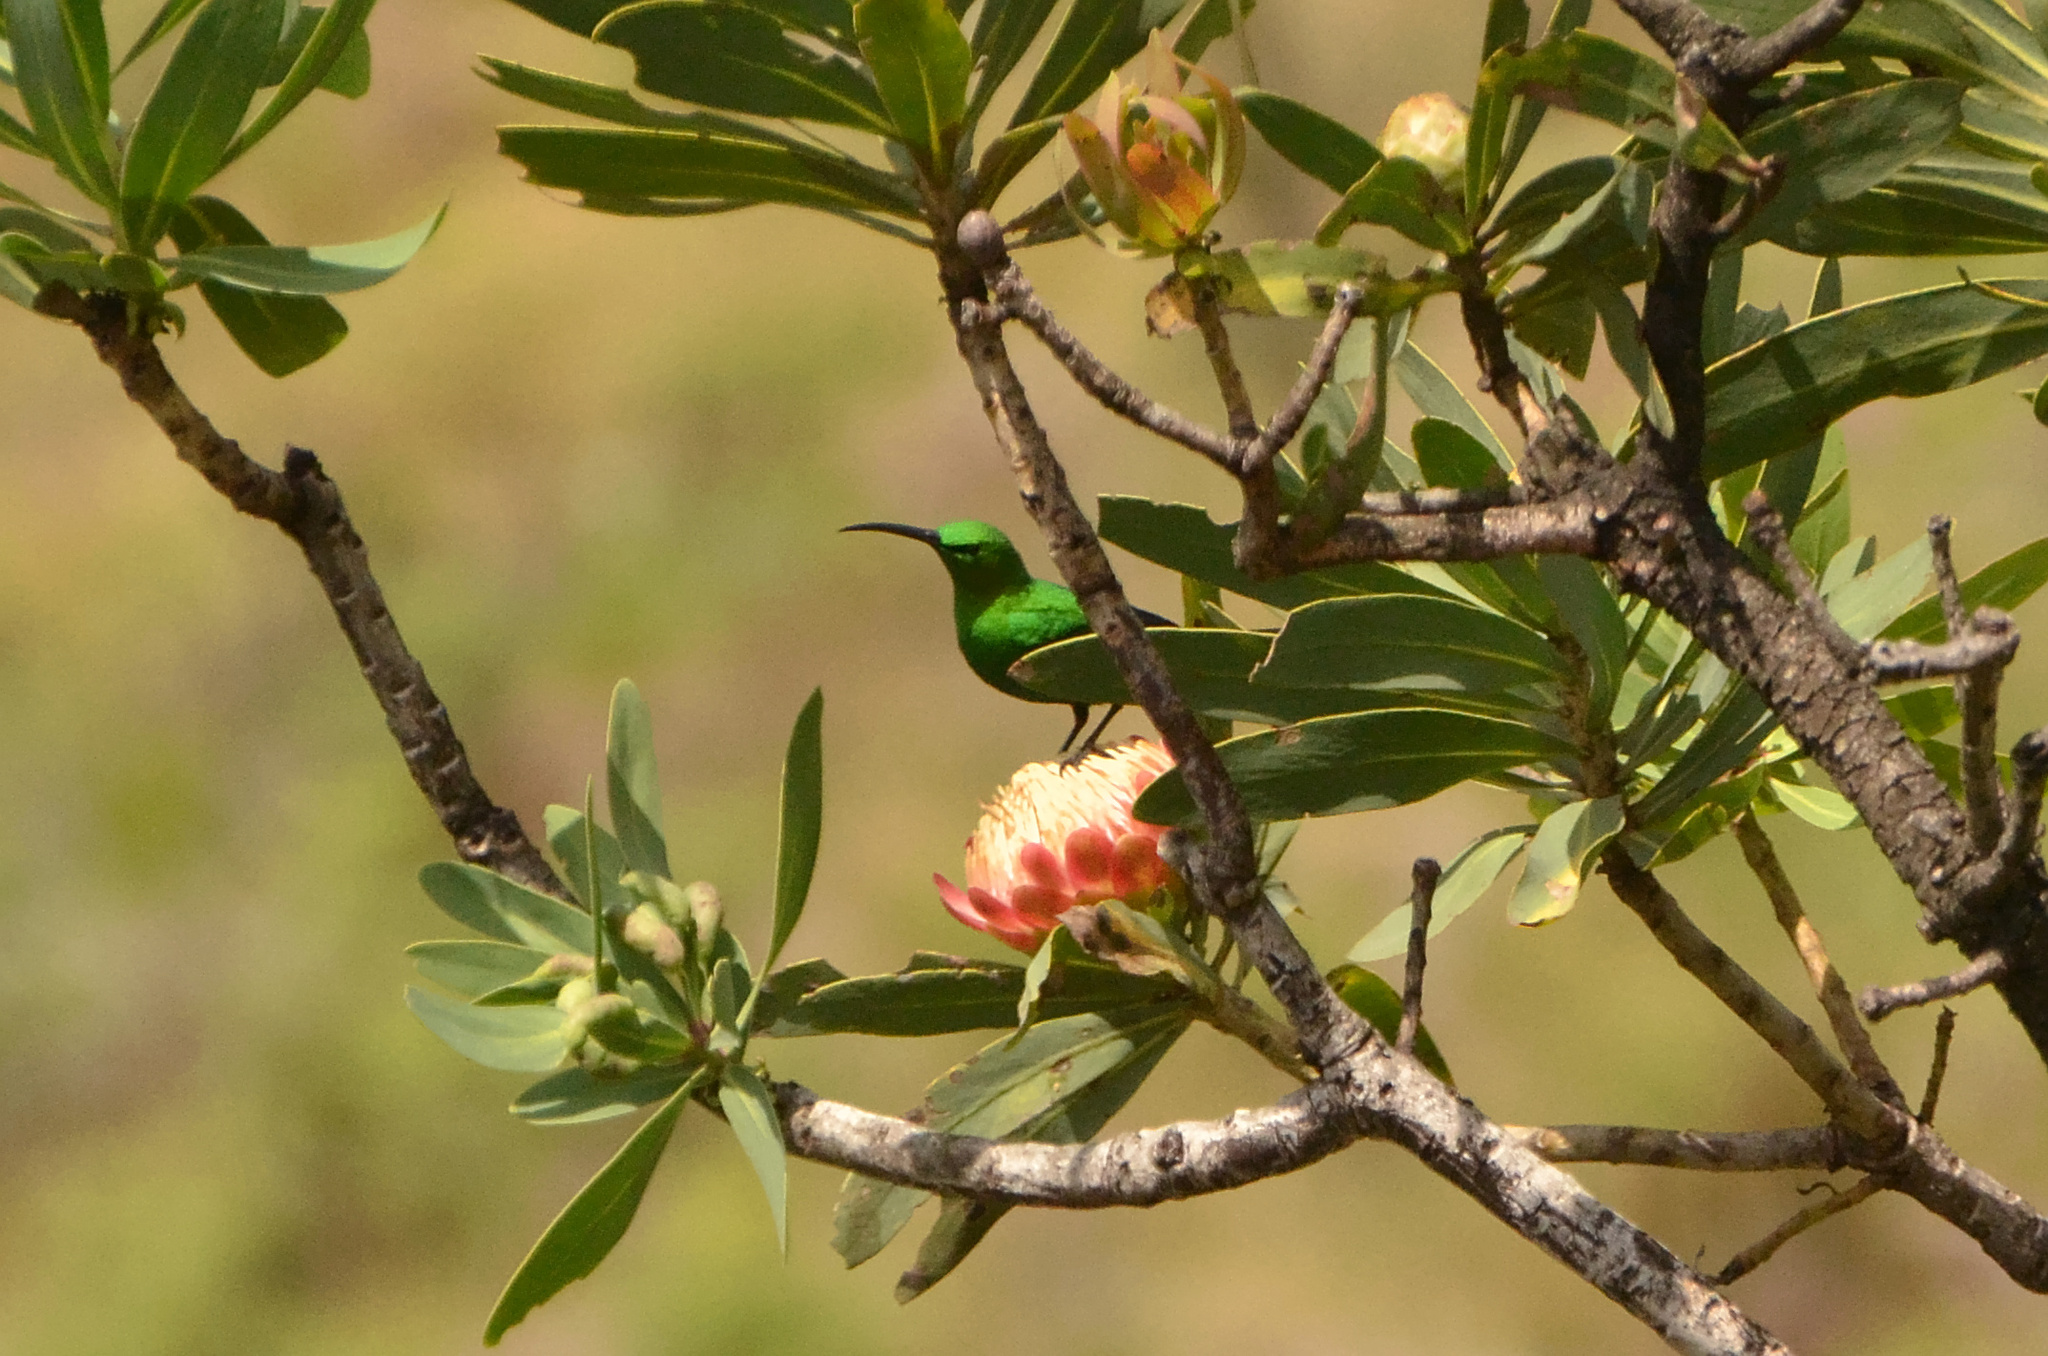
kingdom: Animalia
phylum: Chordata
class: Aves
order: Passeriformes
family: Nectariniidae
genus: Nectarinia
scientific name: Nectarinia famosa
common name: Malachite sunbird
